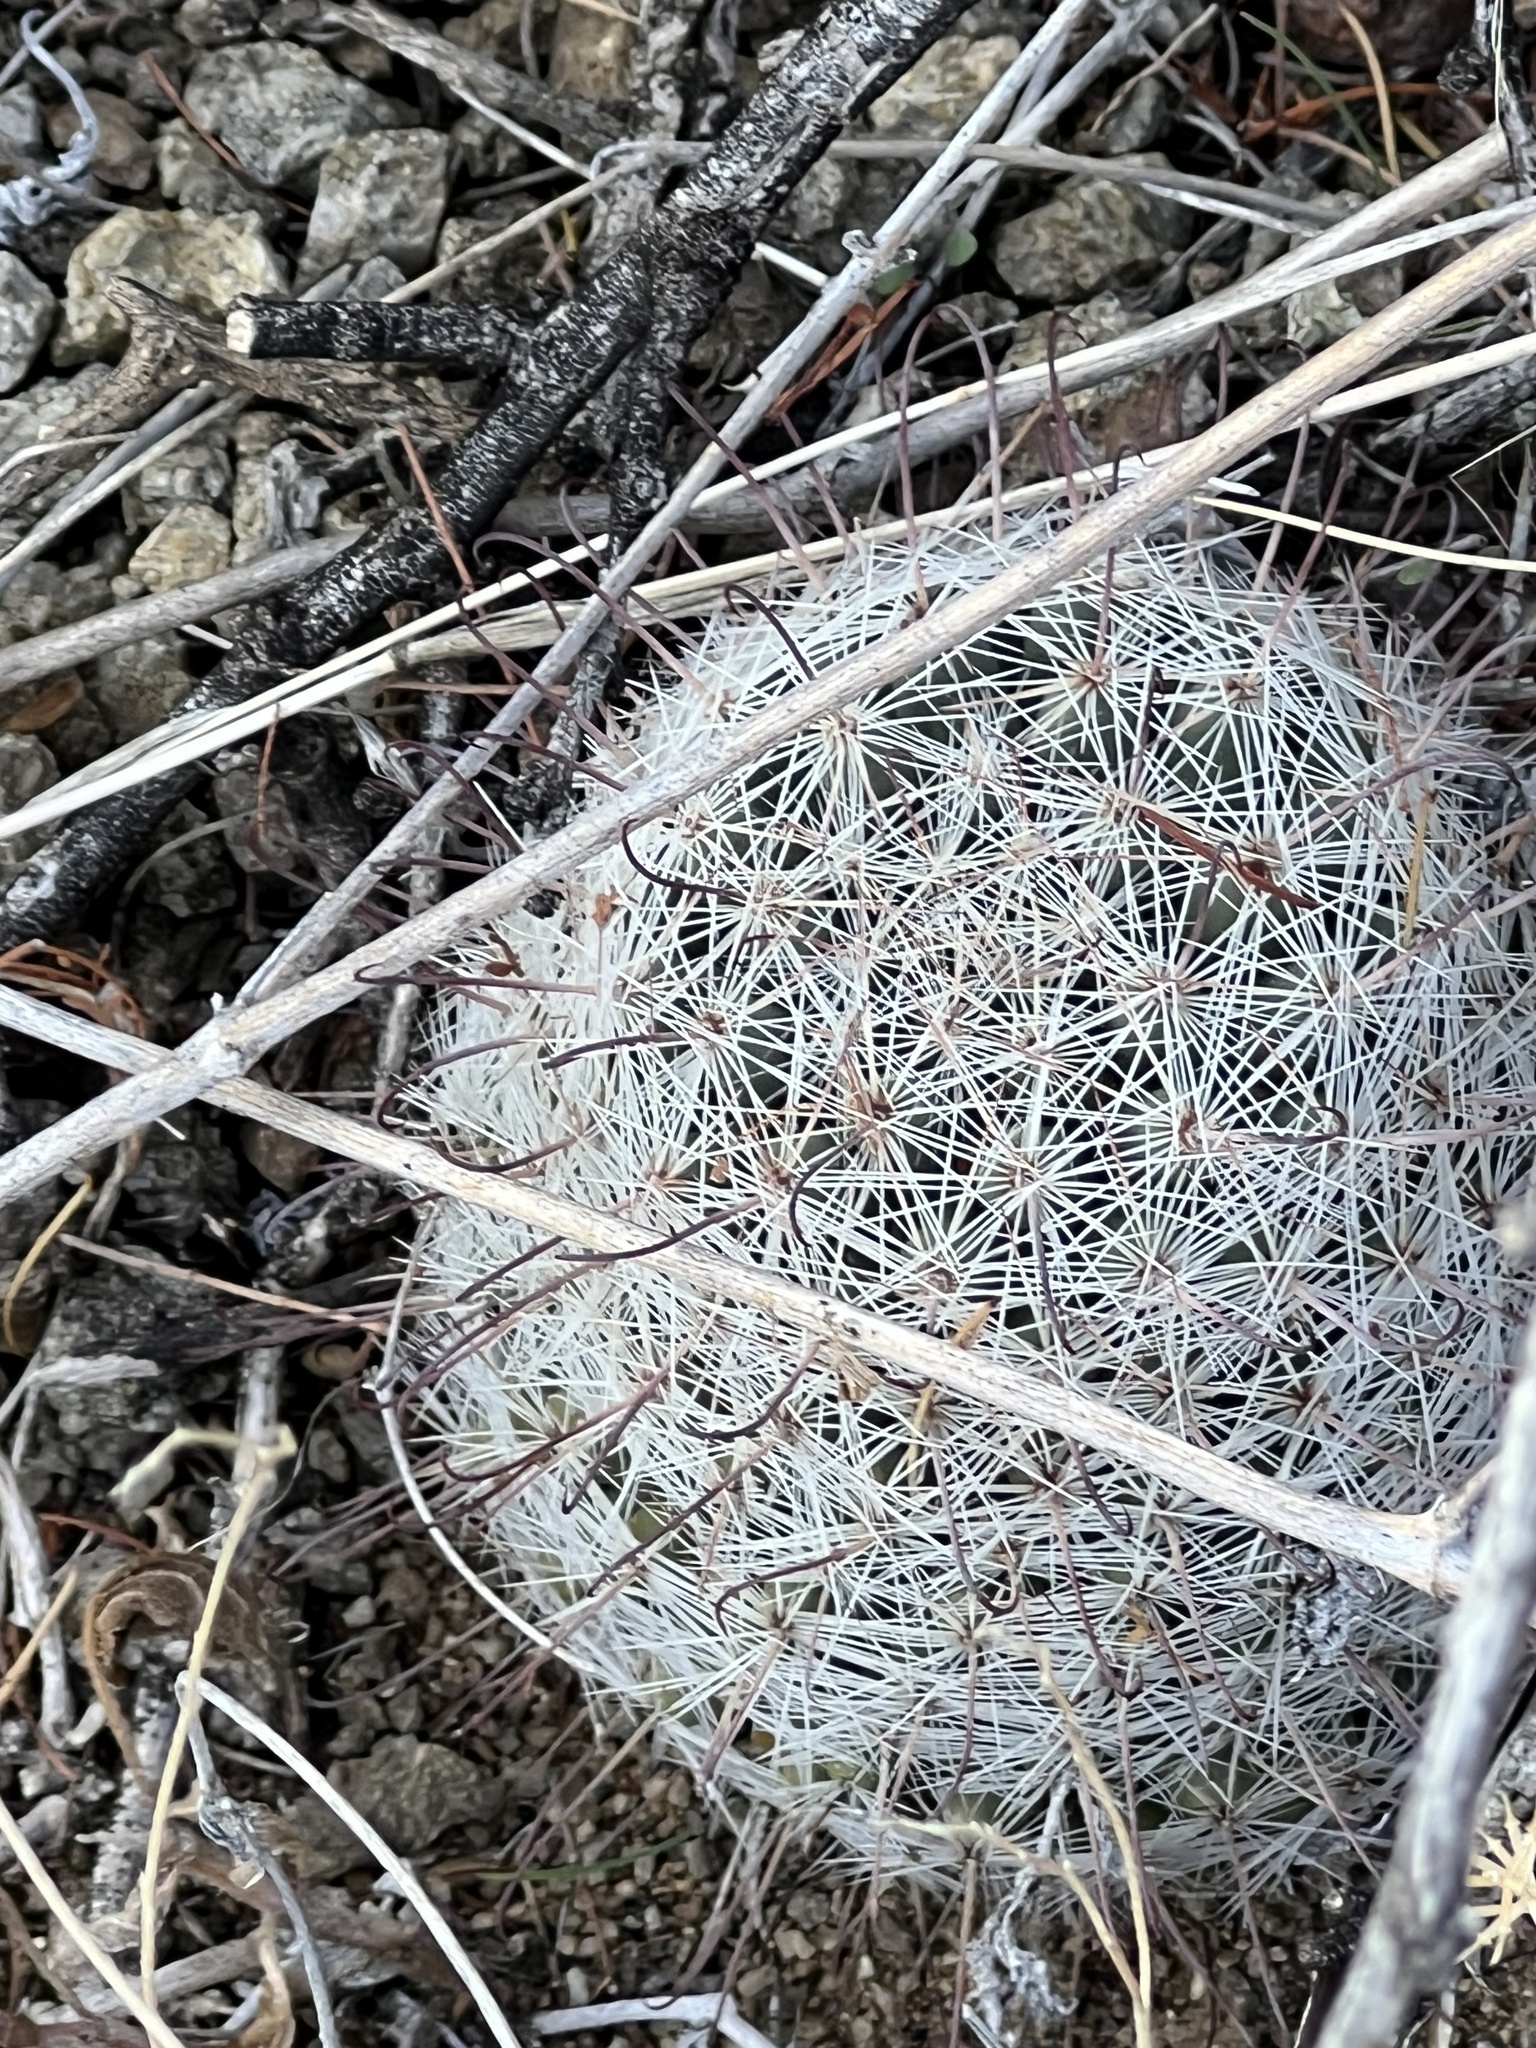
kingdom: Plantae
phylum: Tracheophyta
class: Magnoliopsida
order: Caryophyllales
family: Cactaceae
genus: Cochemiea
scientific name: Cochemiea grahamii
